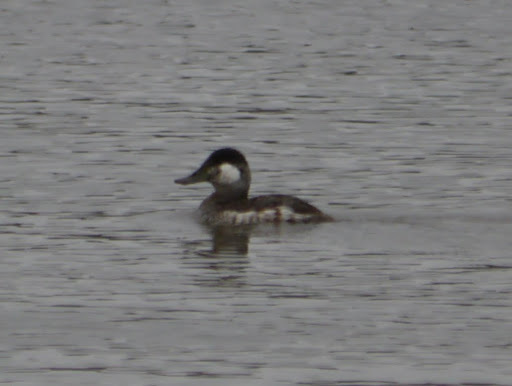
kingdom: Animalia
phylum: Chordata
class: Aves
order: Anseriformes
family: Anatidae
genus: Oxyura
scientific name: Oxyura jamaicensis
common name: Ruddy duck
